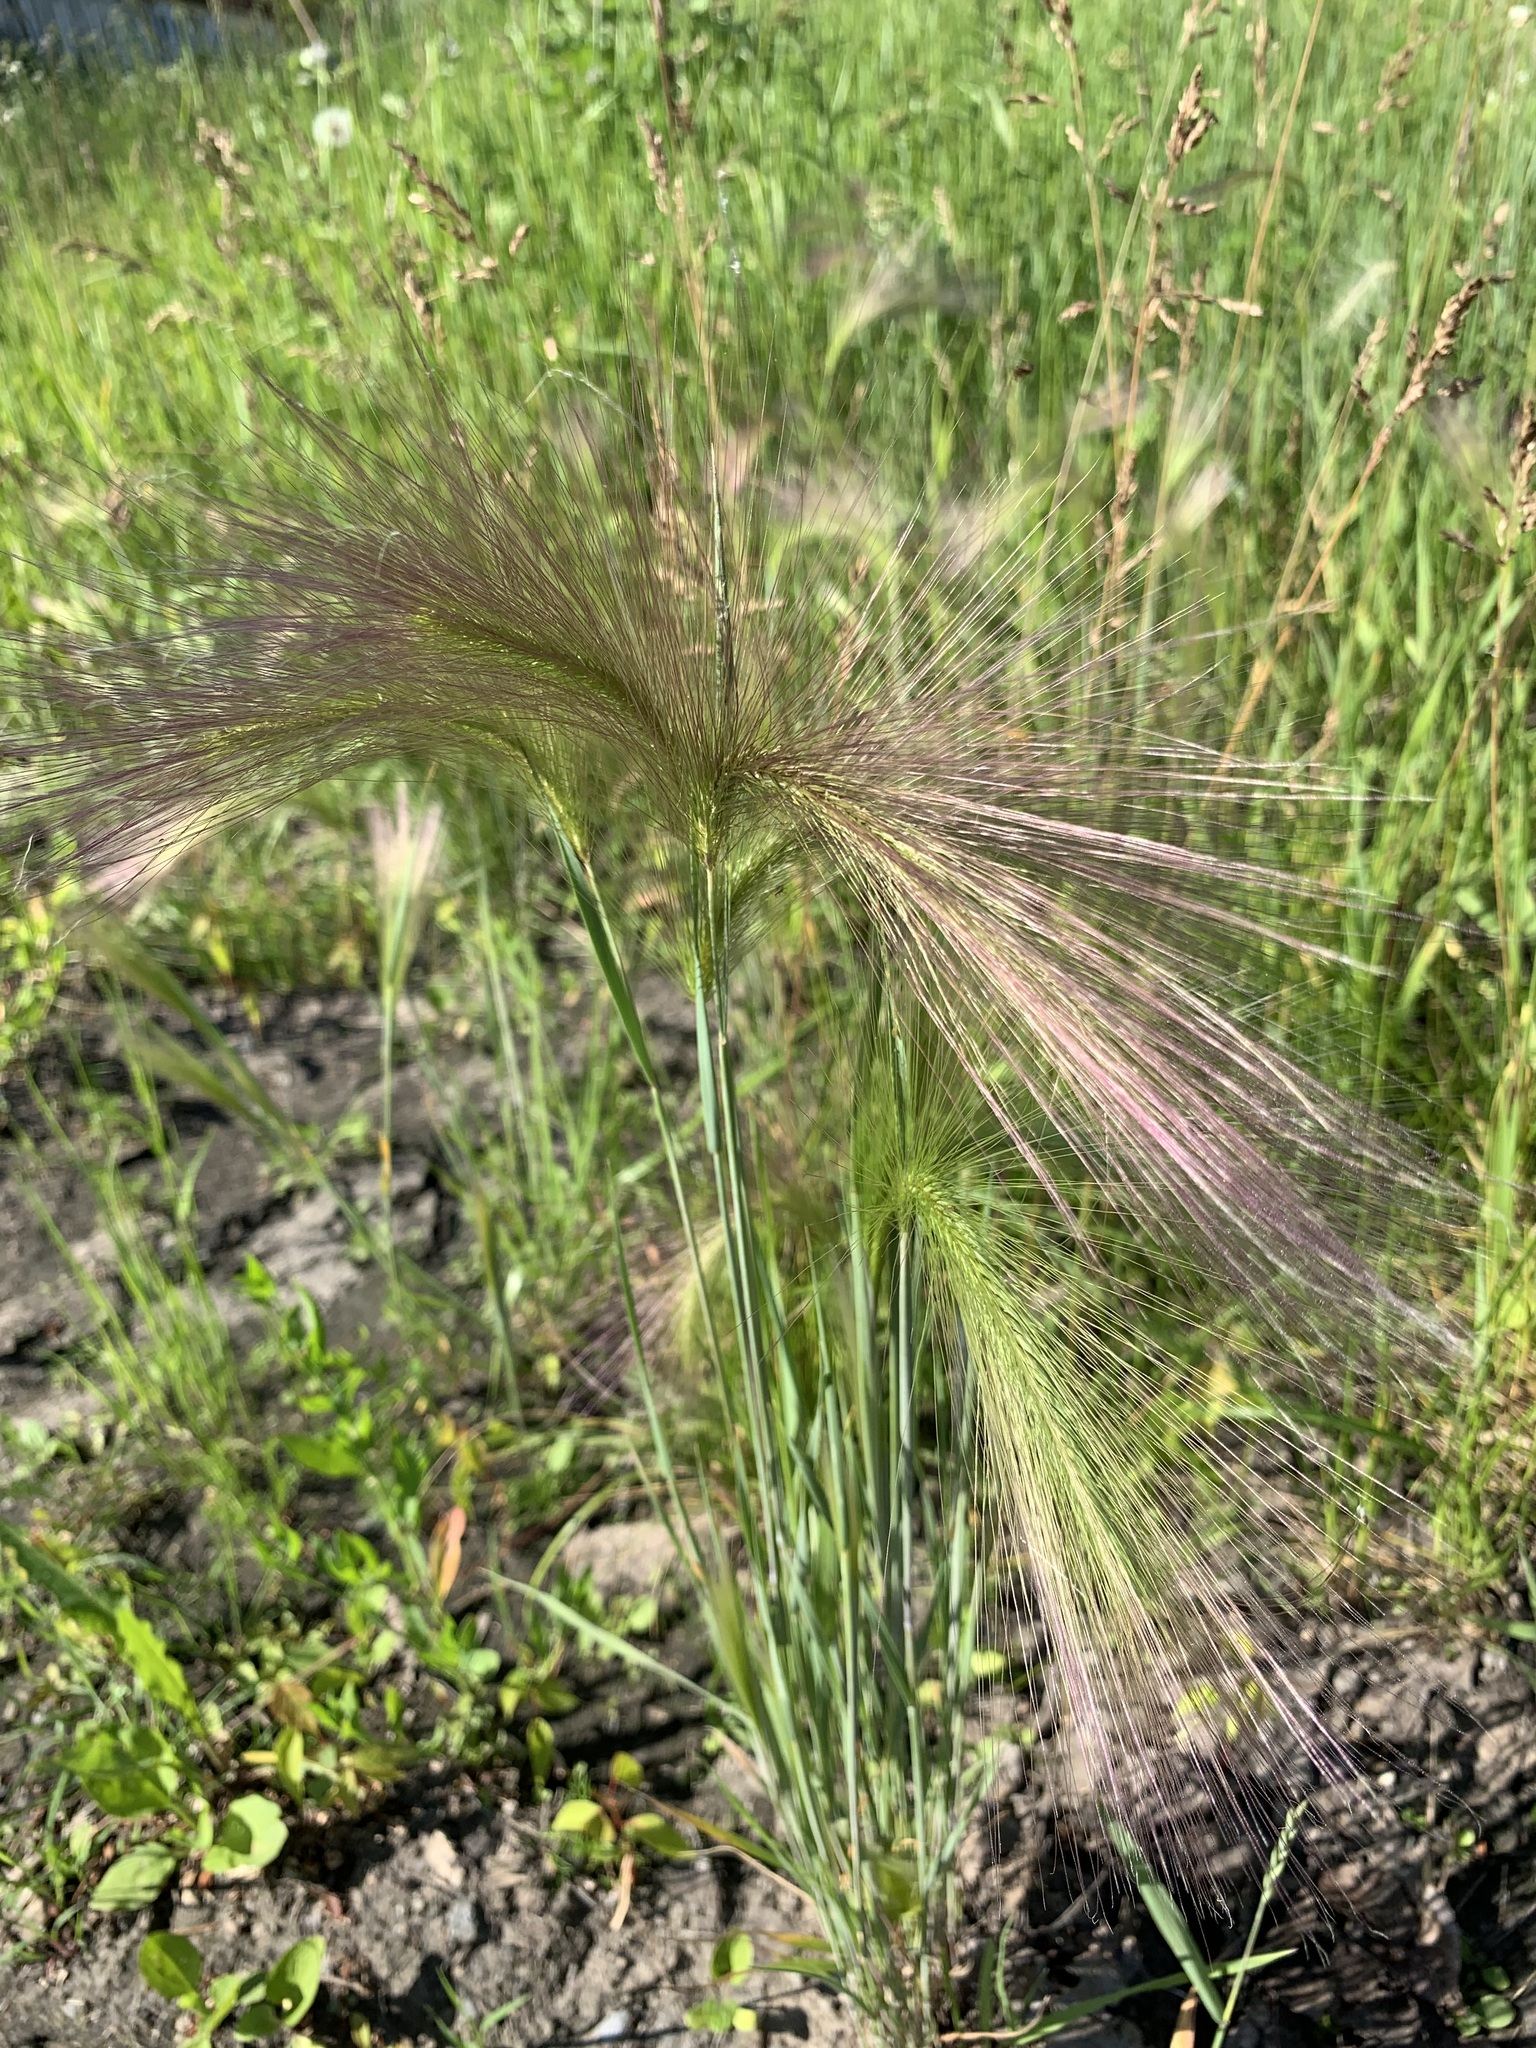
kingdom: Plantae
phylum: Tracheophyta
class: Liliopsida
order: Poales
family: Poaceae
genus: Hordeum
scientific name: Hordeum jubatum
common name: Foxtail barley
